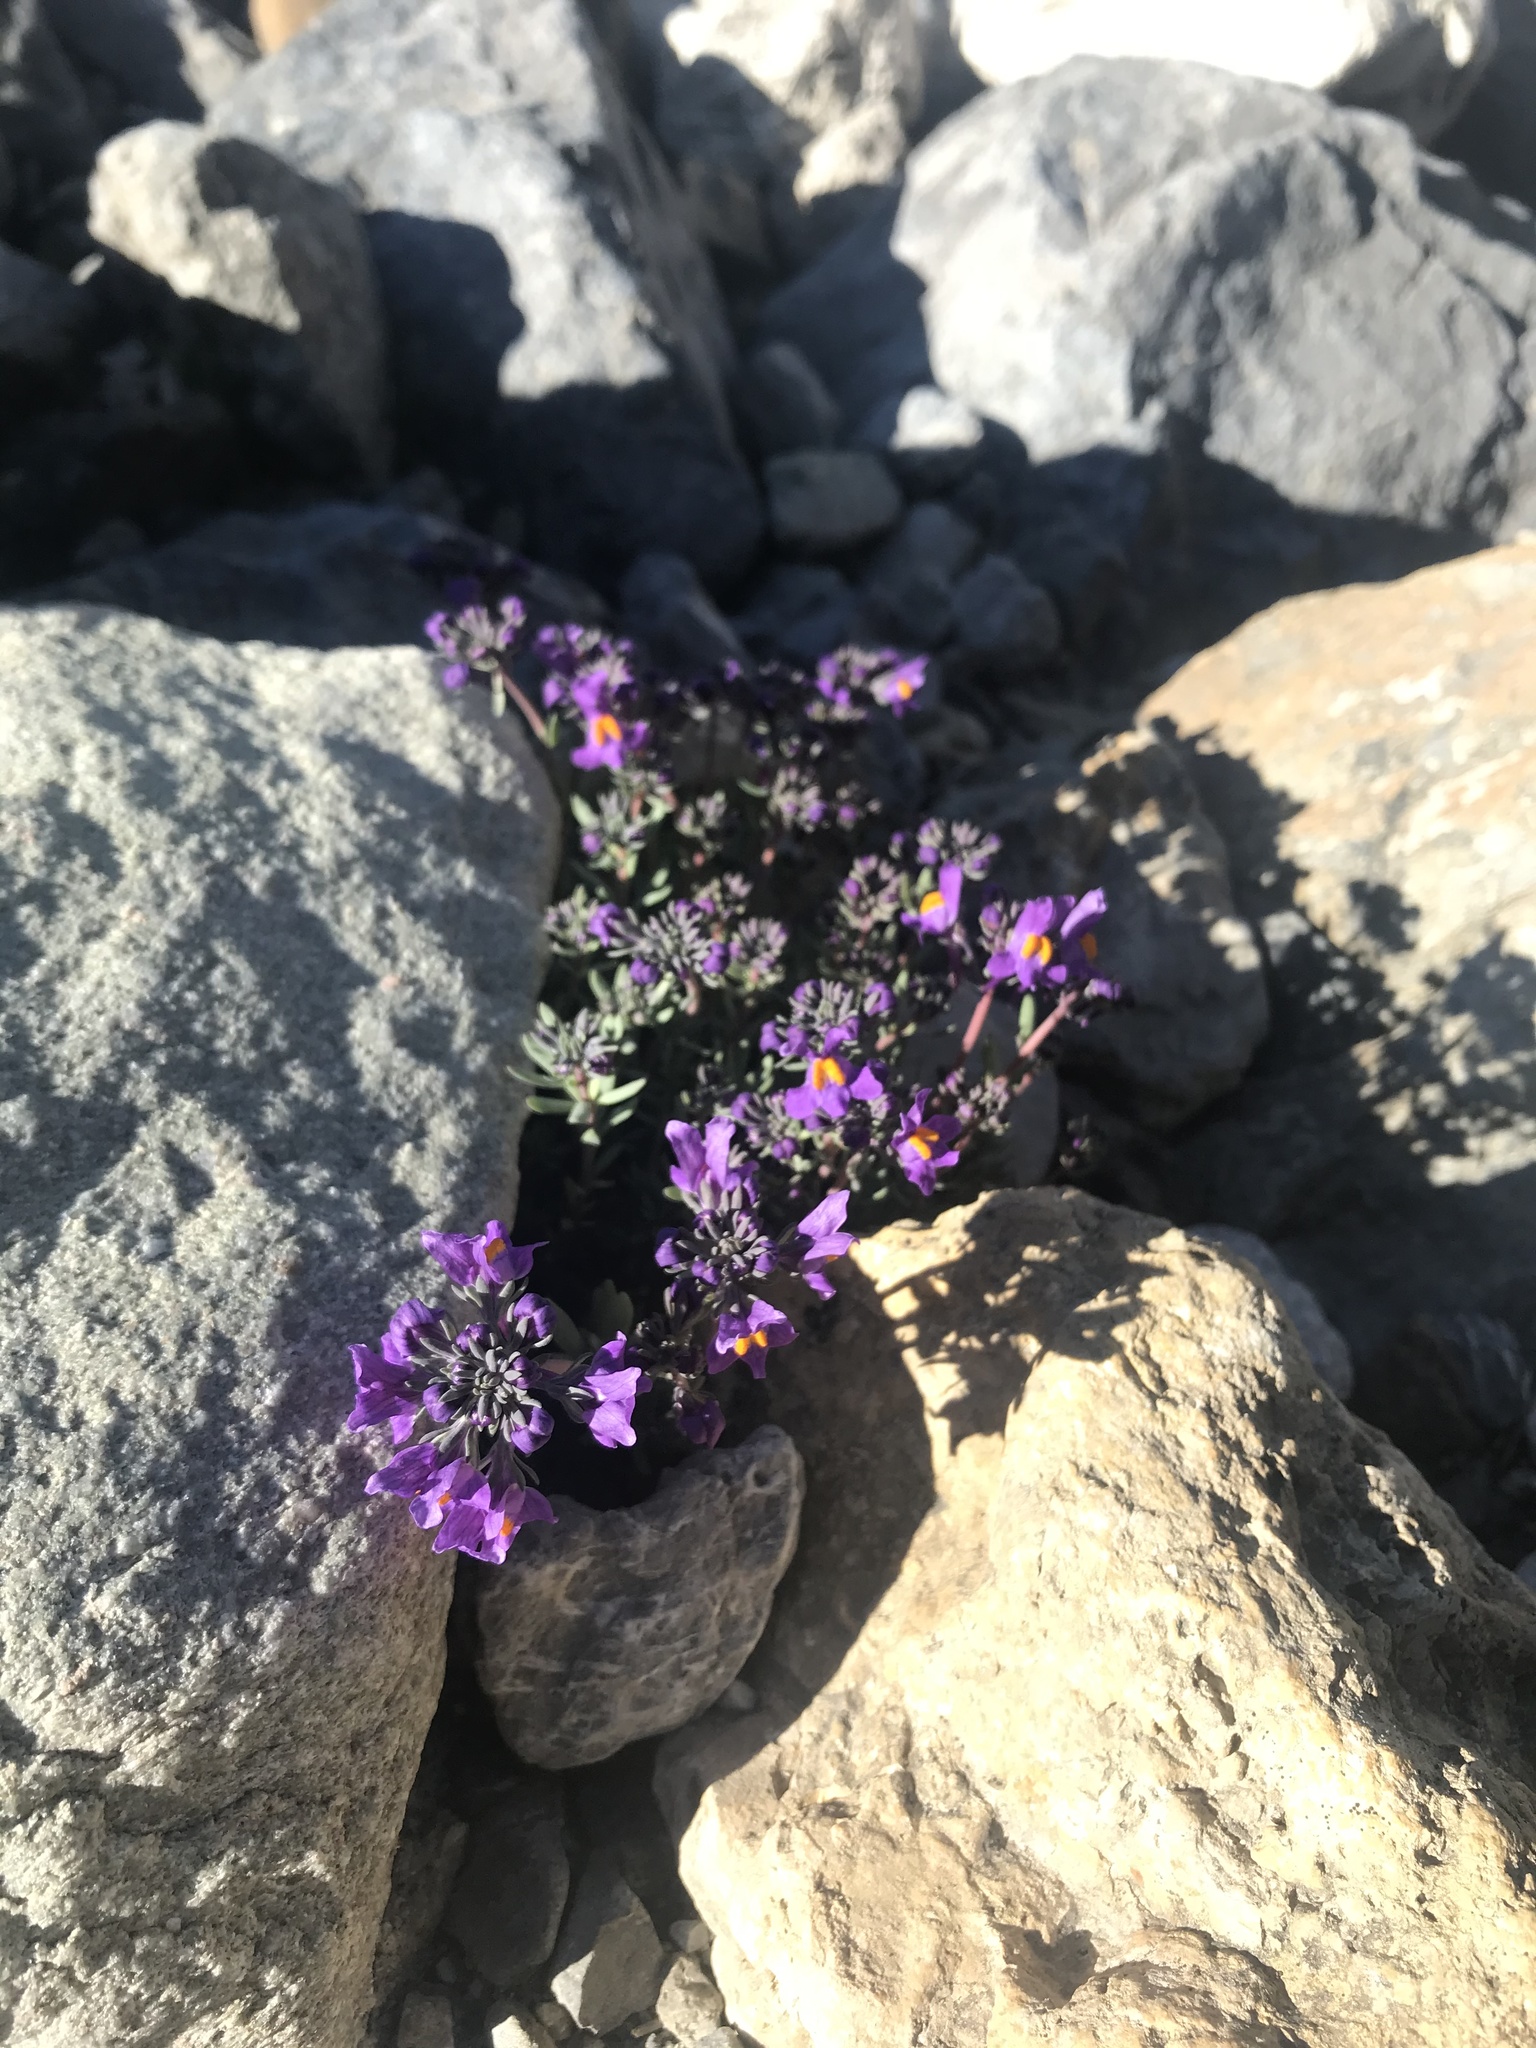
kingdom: Plantae
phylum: Tracheophyta
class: Magnoliopsida
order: Lamiales
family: Plantaginaceae
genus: Linaria
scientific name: Linaria alpina
